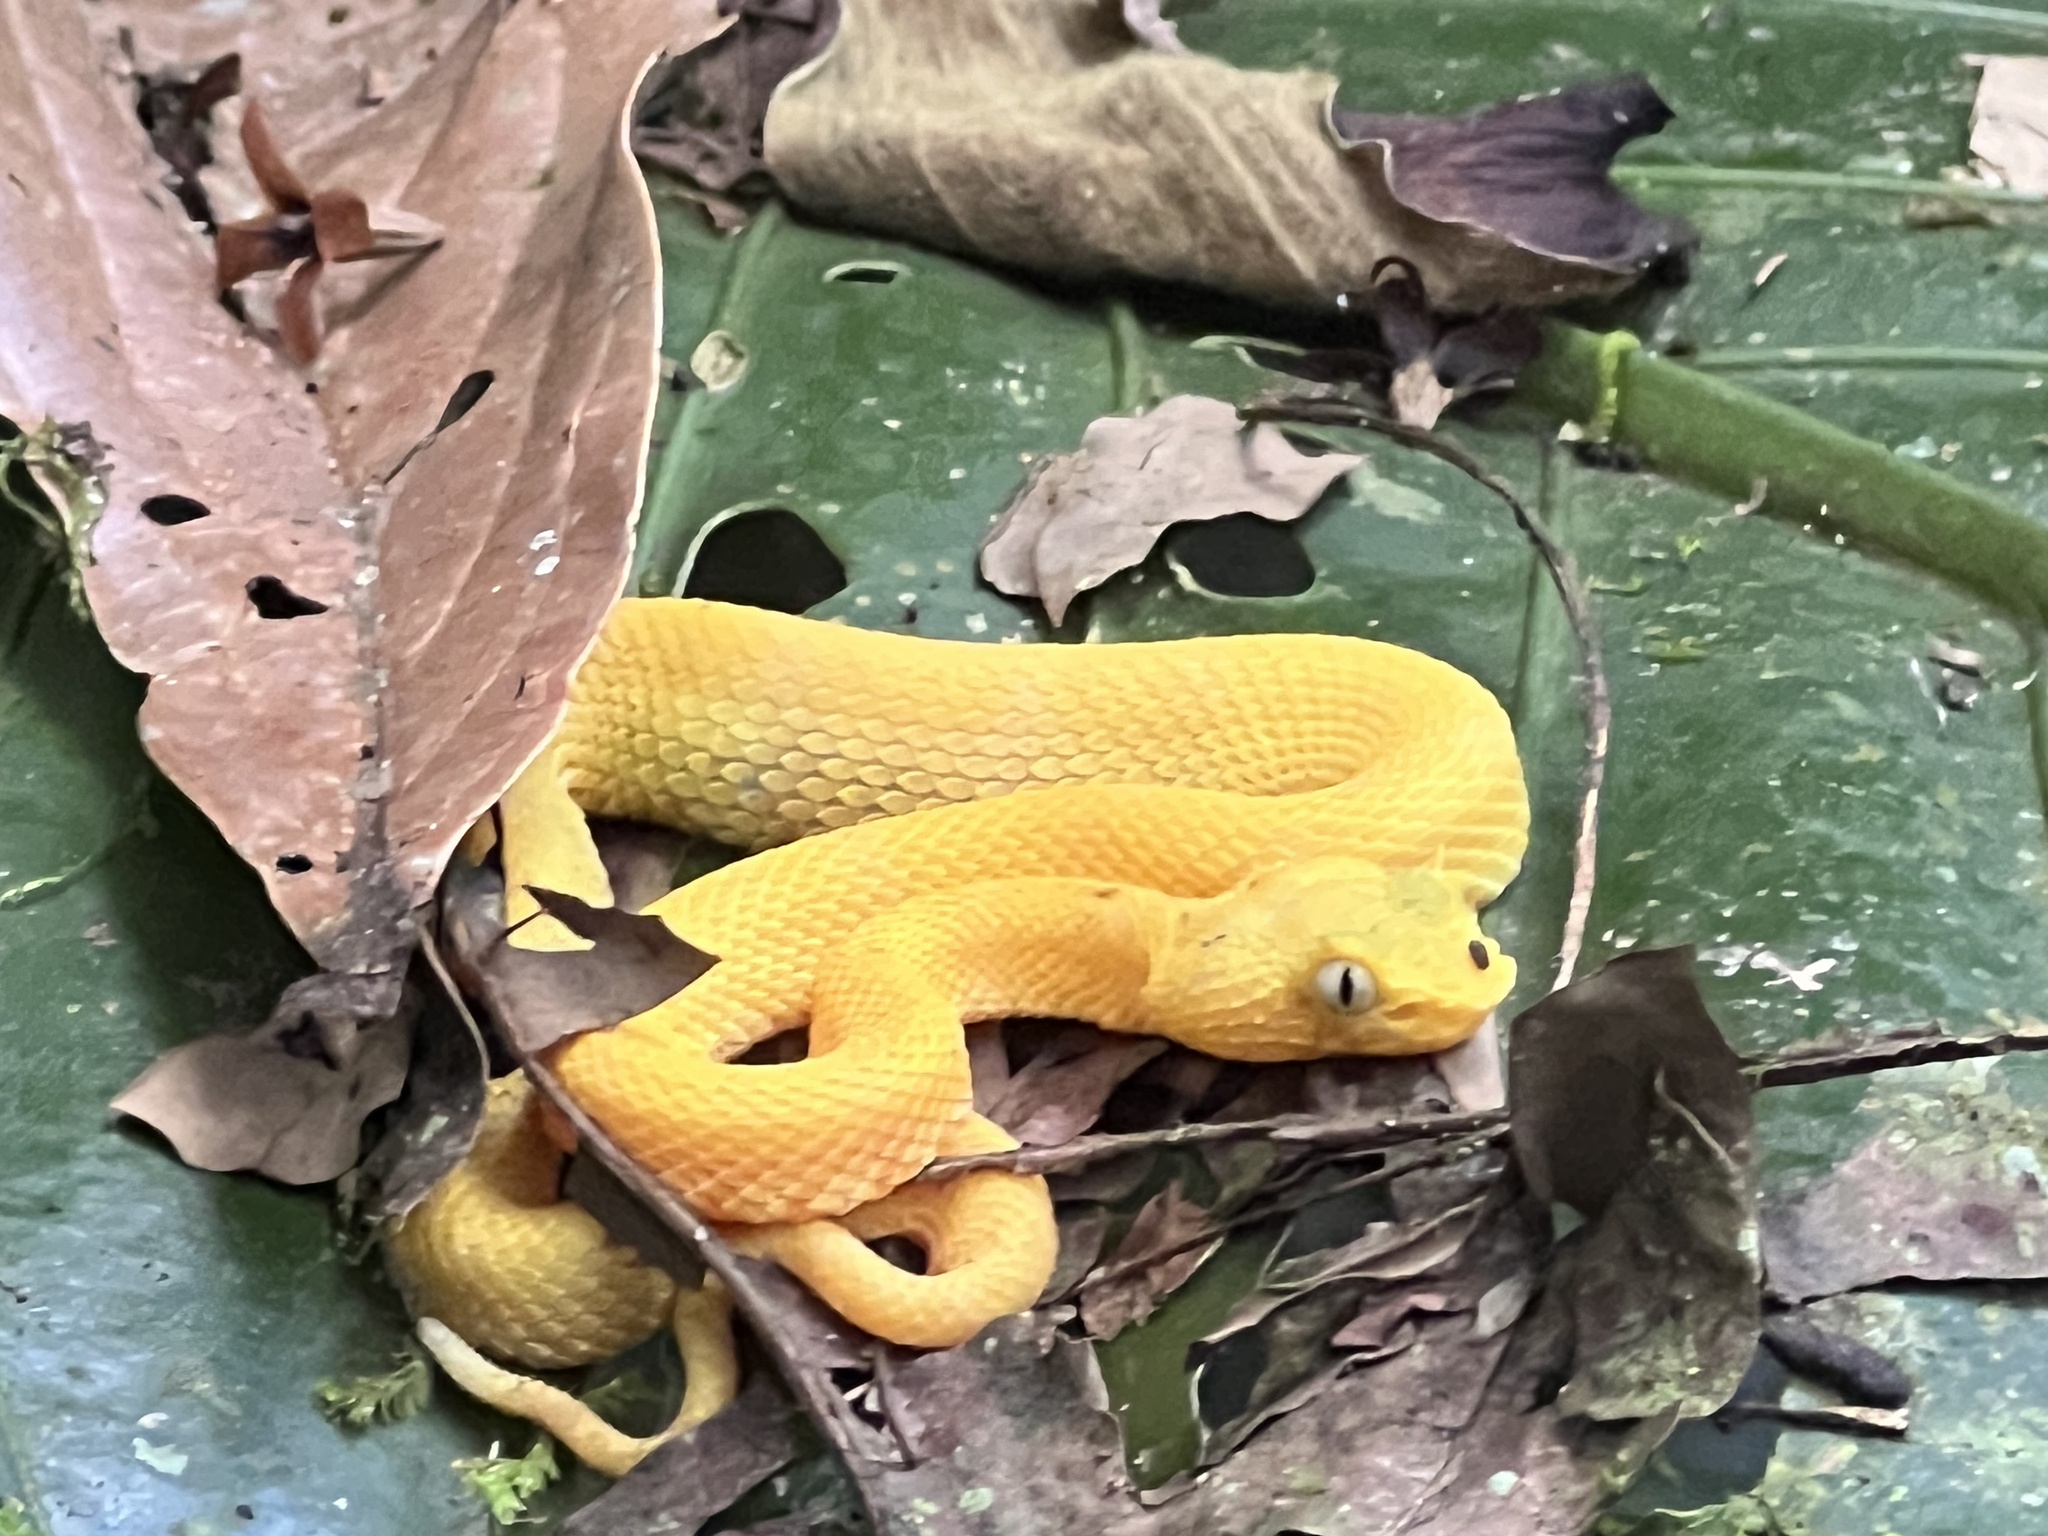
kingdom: Animalia
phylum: Chordata
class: Squamata
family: Viperidae
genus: Bothriechis
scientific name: Bothriechis schlegelii
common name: Eyelash viper
